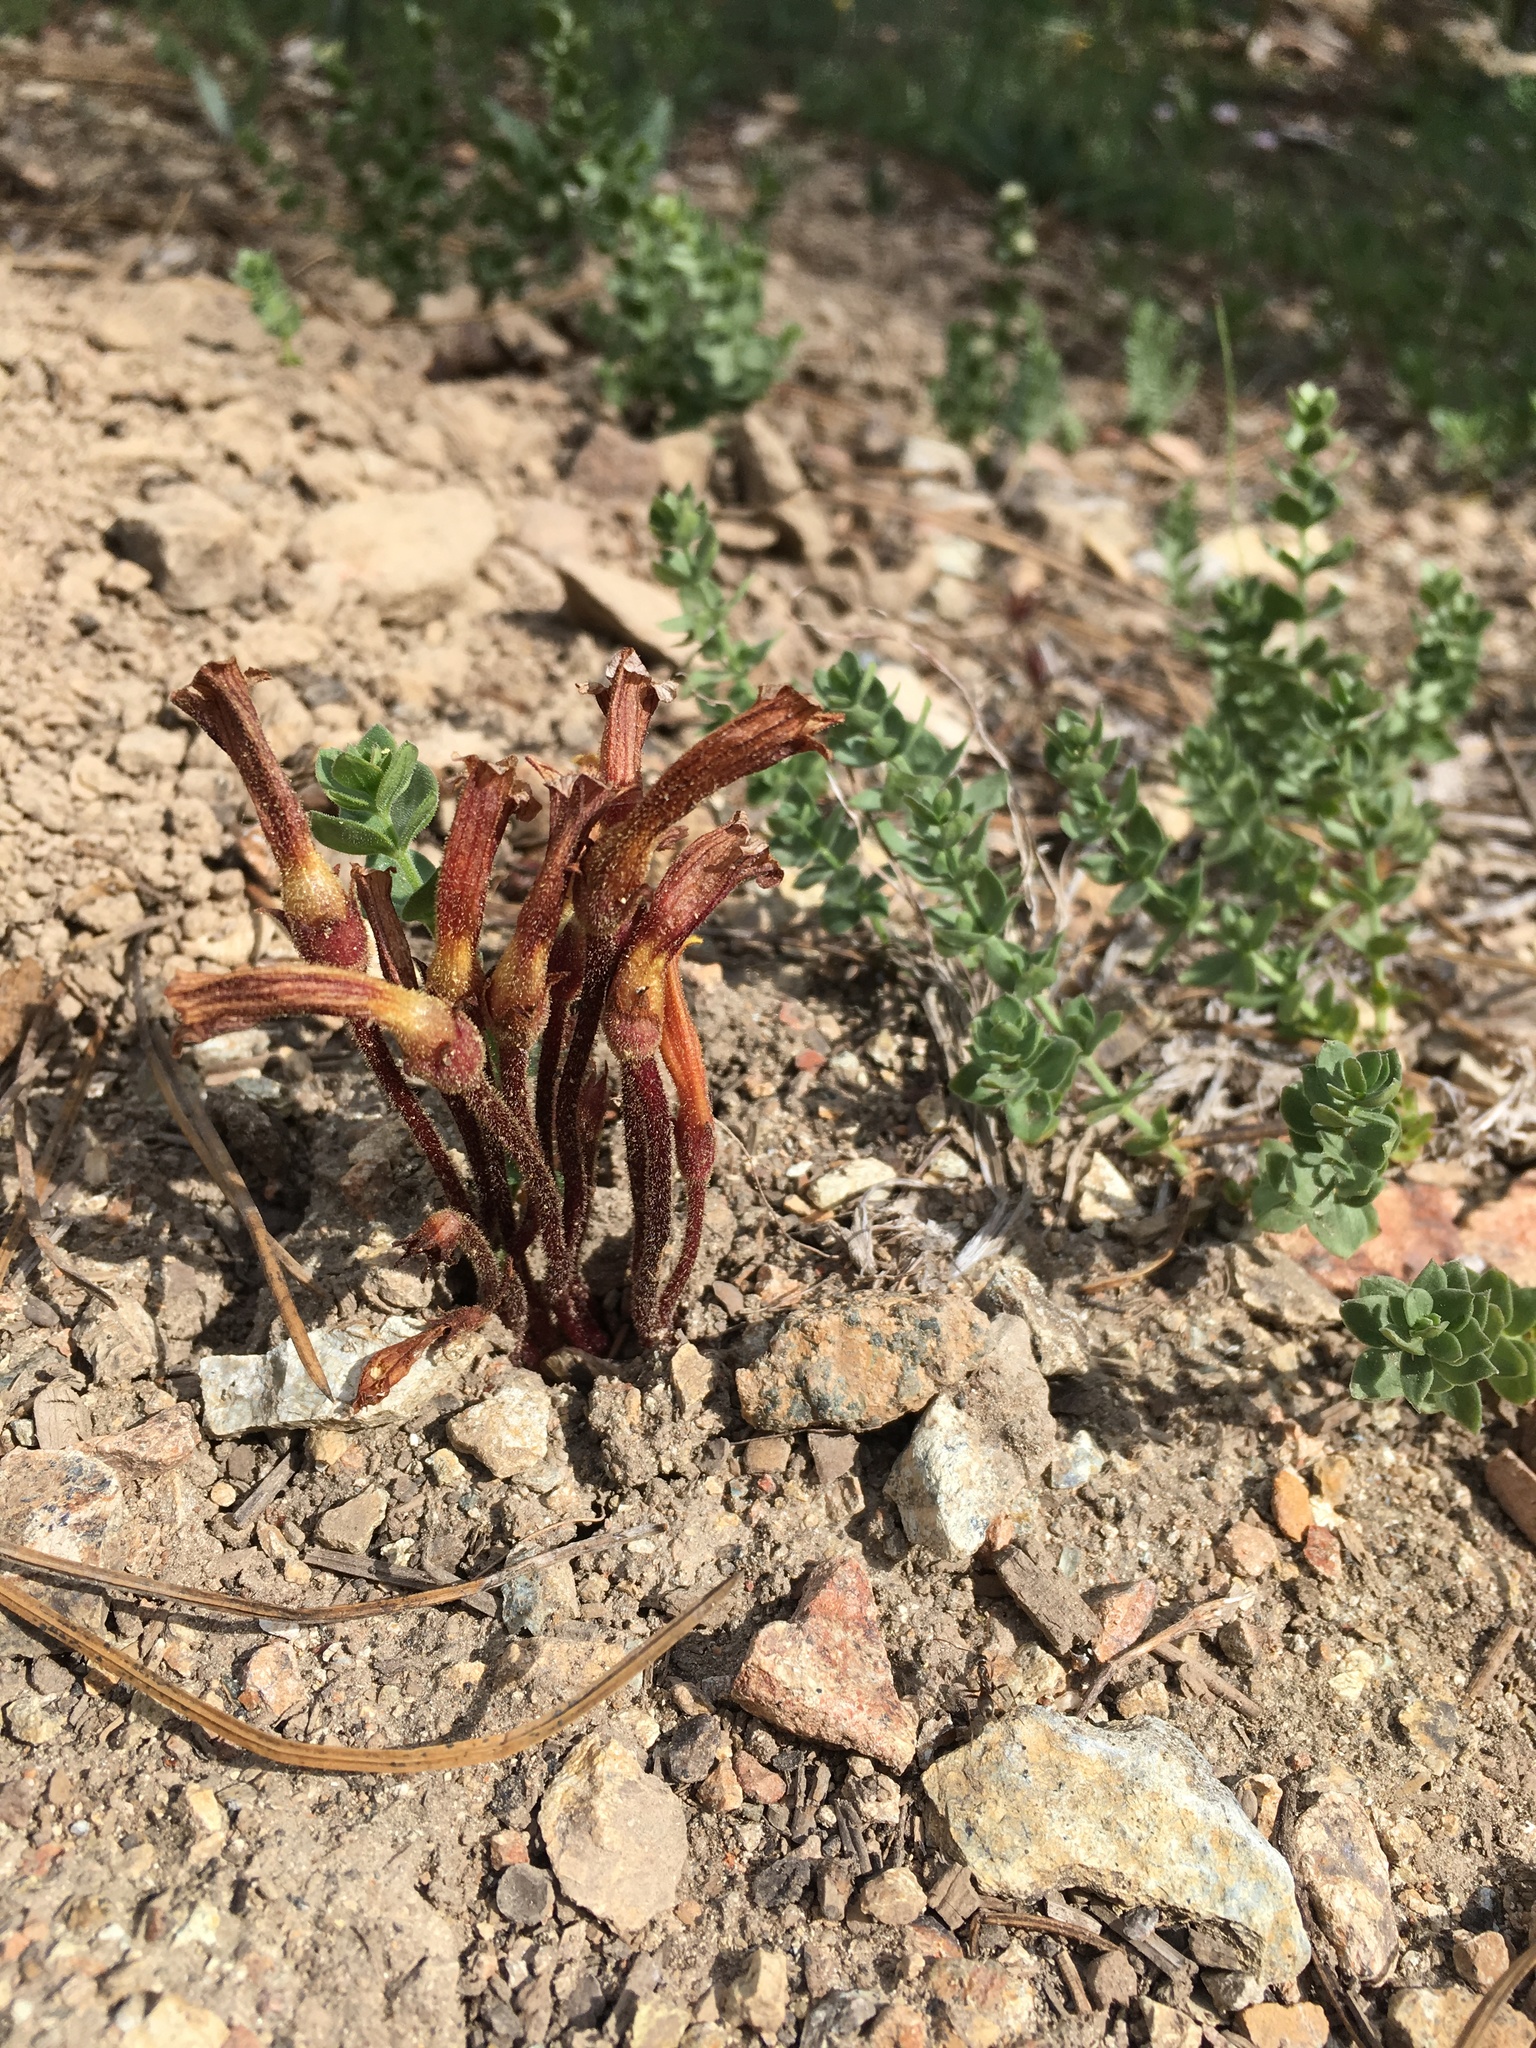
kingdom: Plantae
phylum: Tracheophyta
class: Magnoliopsida
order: Lamiales
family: Orobanchaceae
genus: Aphyllon
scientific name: Aphyllon epigalium
